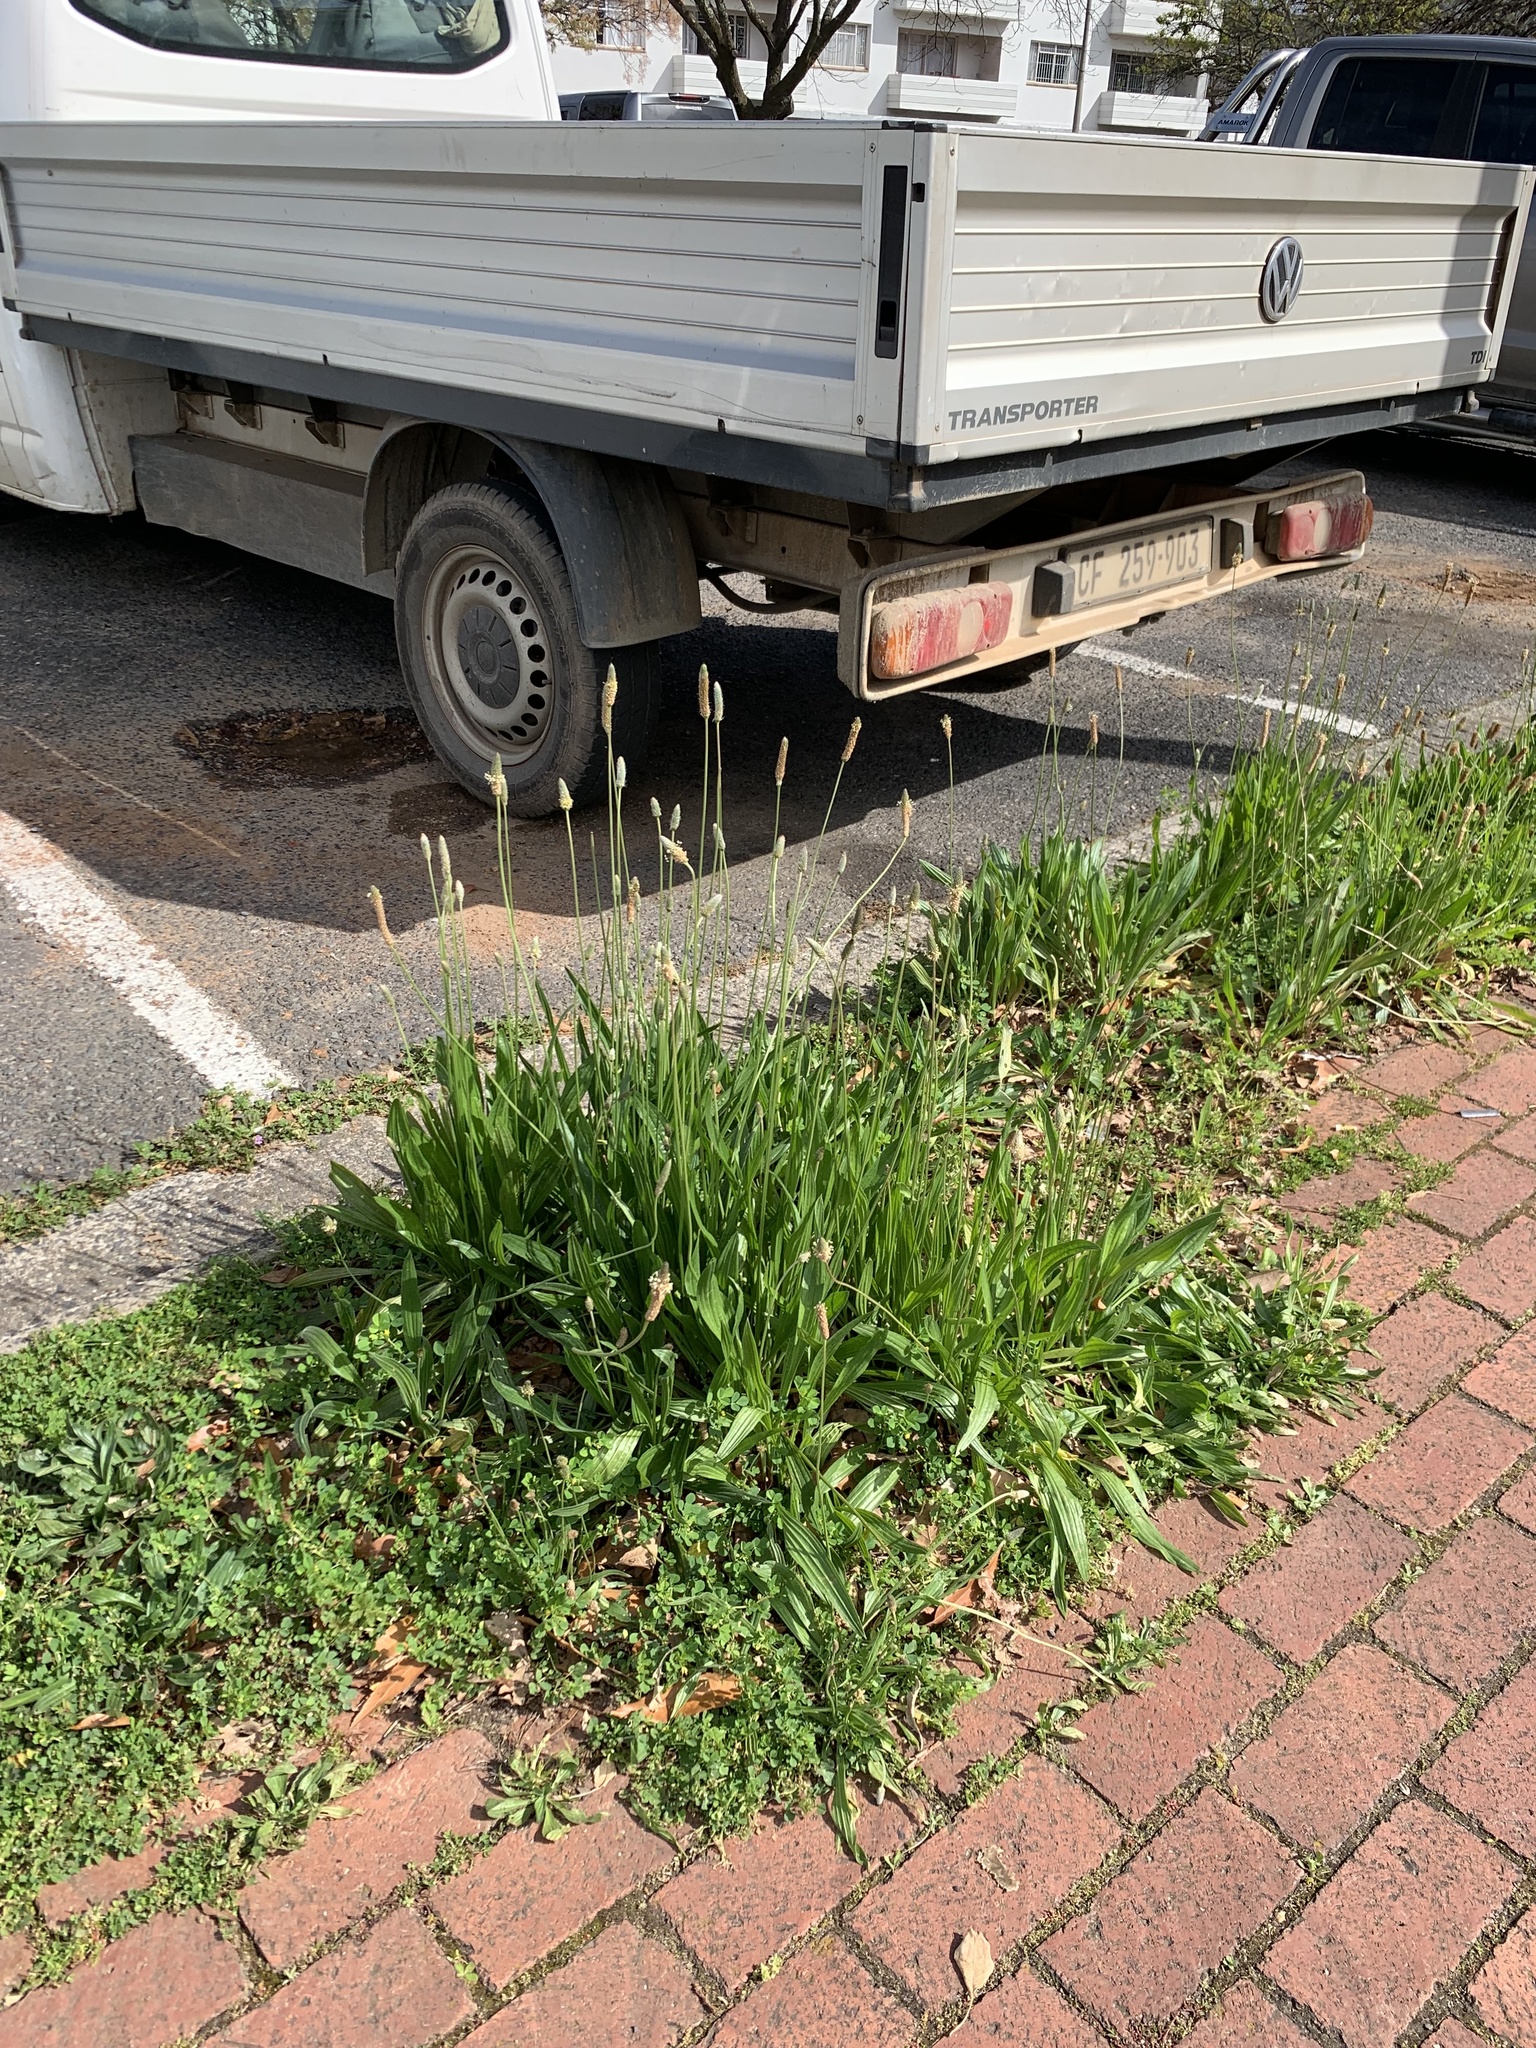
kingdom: Plantae
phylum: Tracheophyta
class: Magnoliopsida
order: Lamiales
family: Plantaginaceae
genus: Plantago
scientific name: Plantago lanceolata
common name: Ribwort plantain
